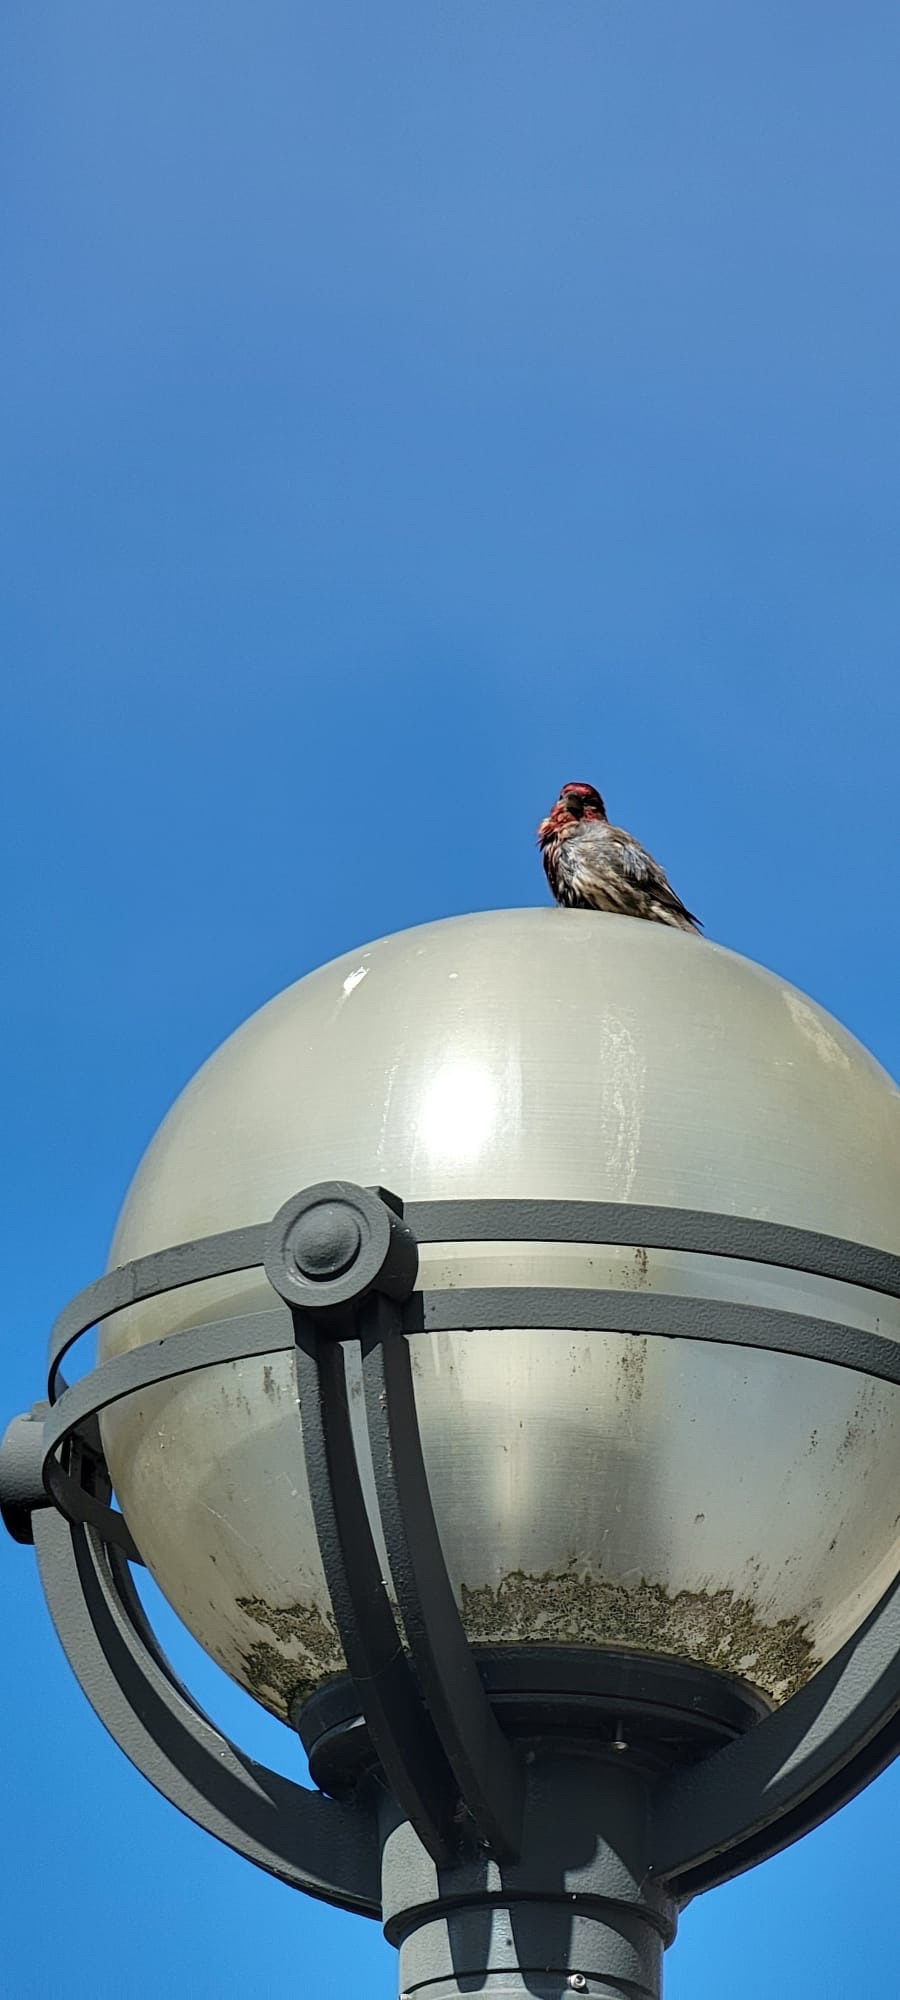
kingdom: Animalia
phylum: Chordata
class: Aves
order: Passeriformes
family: Fringillidae
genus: Haemorhous
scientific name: Haemorhous mexicanus
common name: House finch
